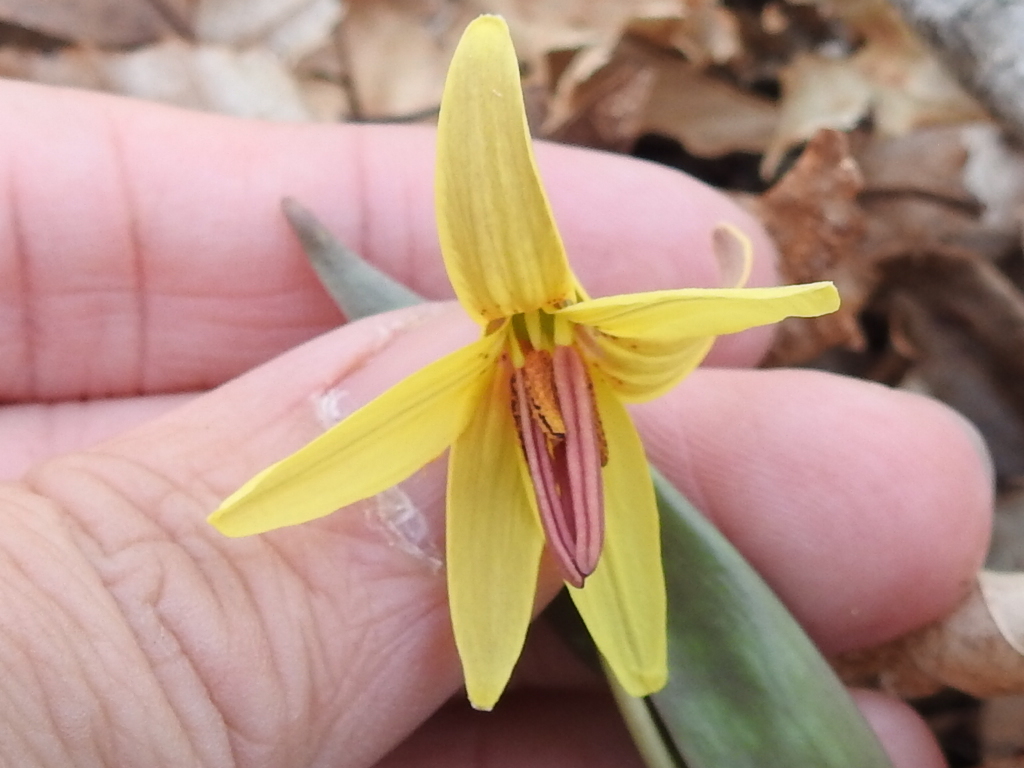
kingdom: Plantae
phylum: Tracheophyta
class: Liliopsida
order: Liliales
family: Liliaceae
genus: Erythronium
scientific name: Erythronium umbilicatum
